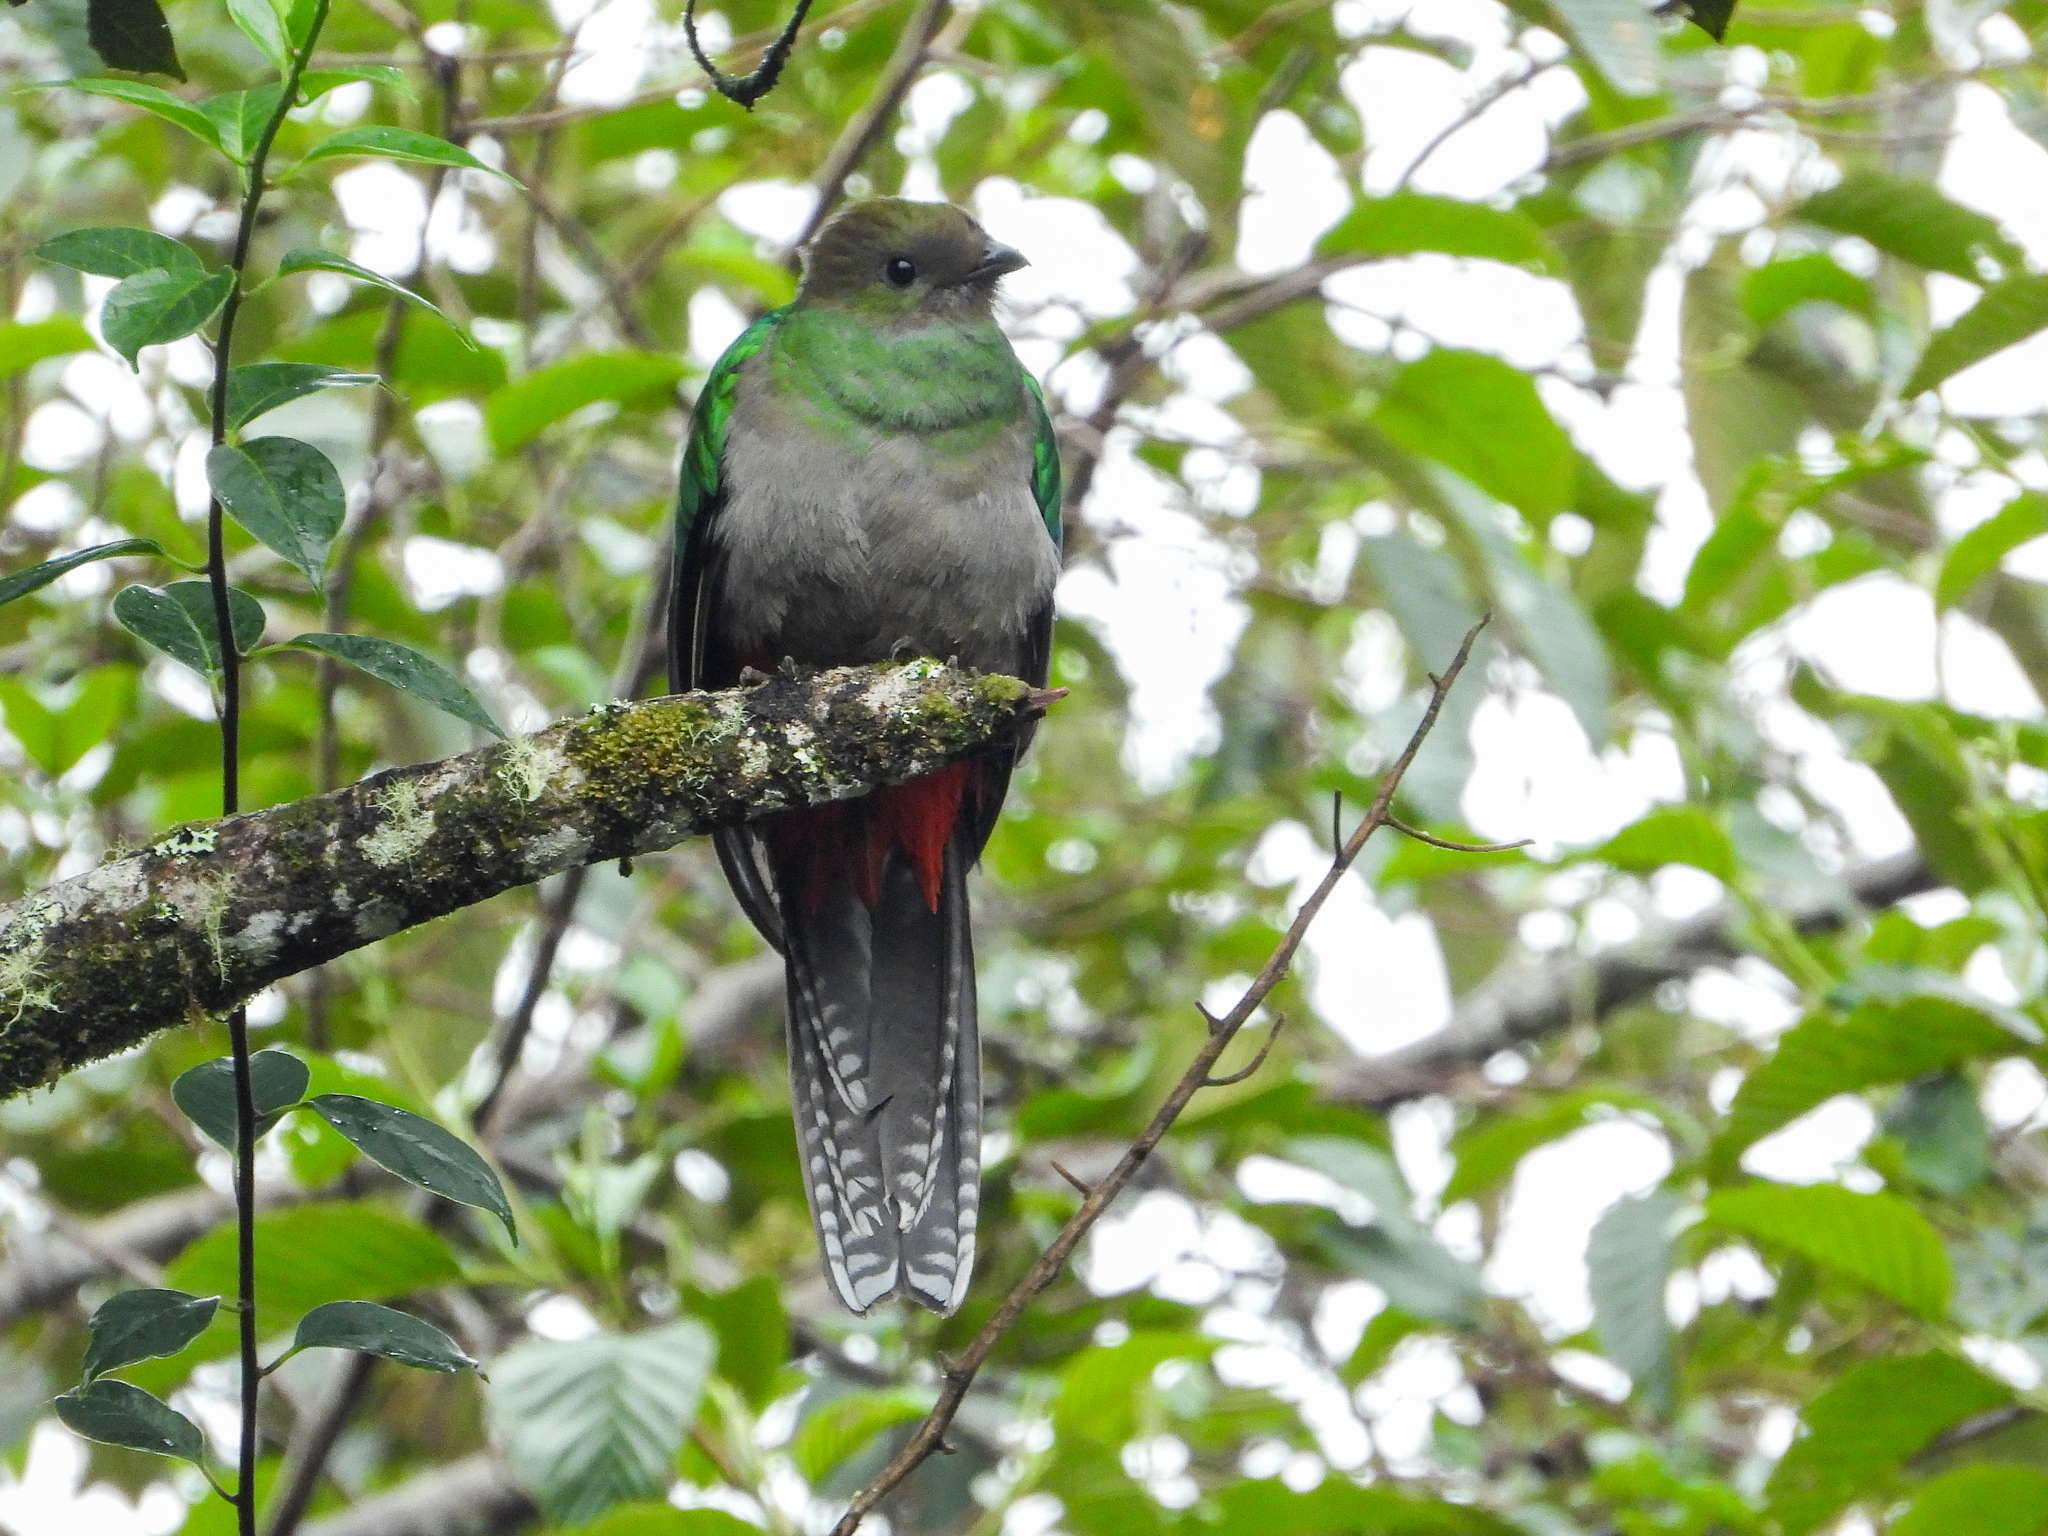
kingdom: Animalia
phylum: Chordata
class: Aves
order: Trogoniformes
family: Trogonidae
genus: Pharomachrus
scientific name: Pharomachrus mocinno
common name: Resplendent quetzal
